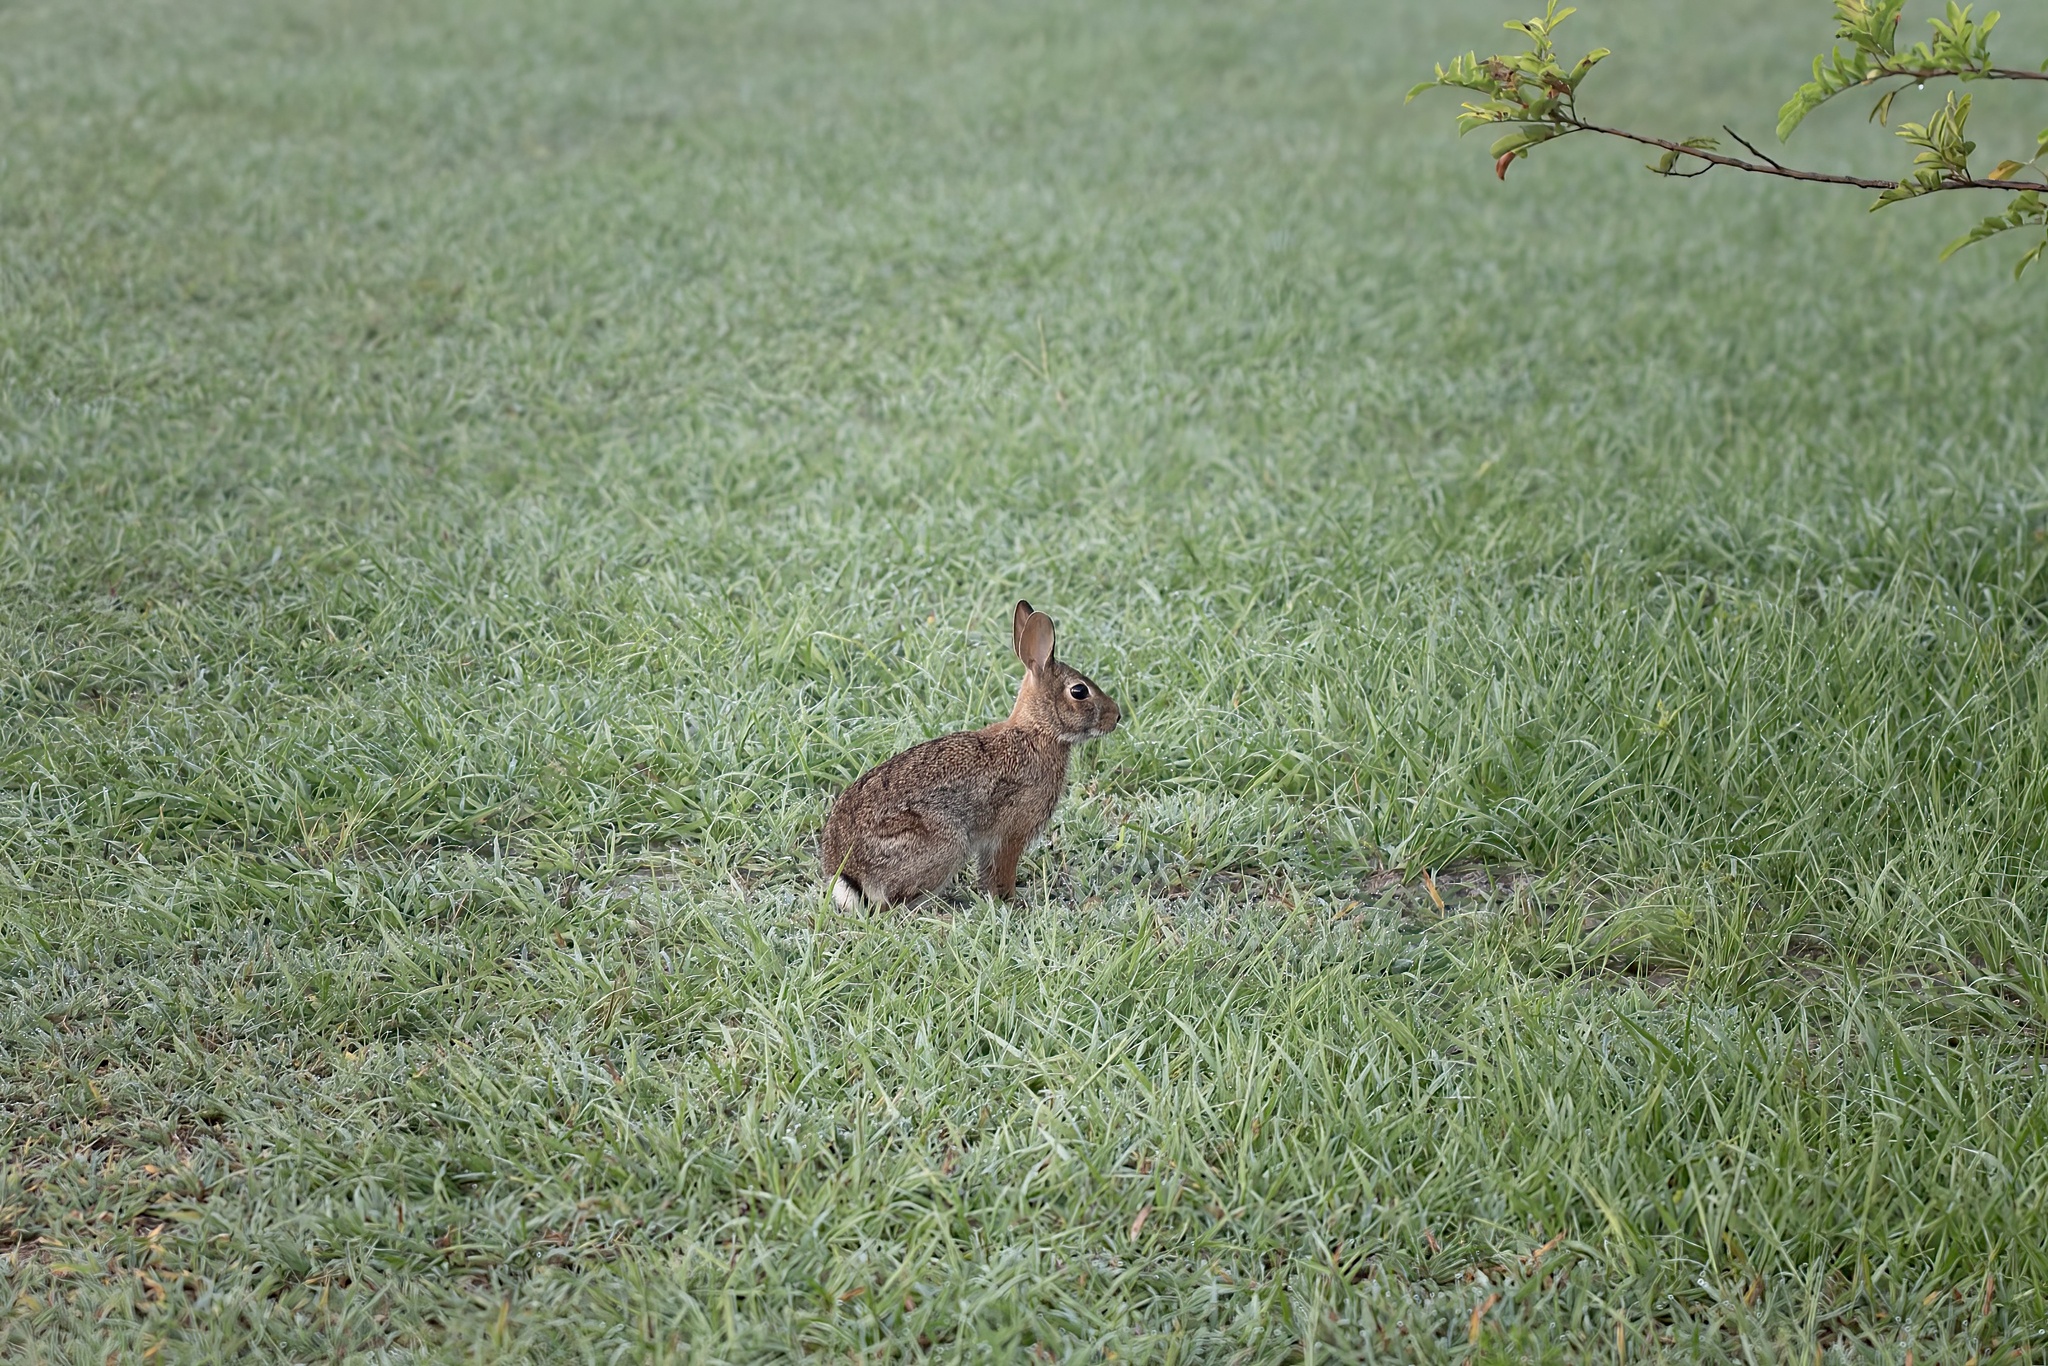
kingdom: Animalia
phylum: Chordata
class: Mammalia
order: Lagomorpha
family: Leporidae
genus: Sylvilagus
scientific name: Sylvilagus floridanus
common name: Eastern cottontail
